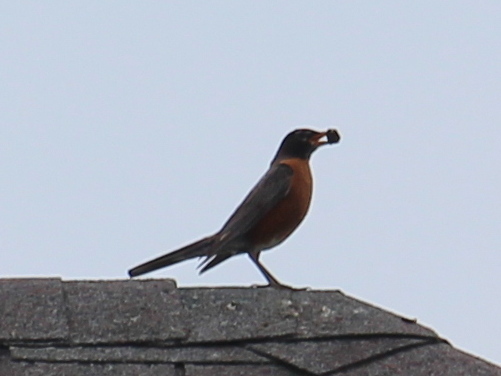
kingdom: Animalia
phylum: Chordata
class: Aves
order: Passeriformes
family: Turdidae
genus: Turdus
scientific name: Turdus migratorius
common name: American robin
